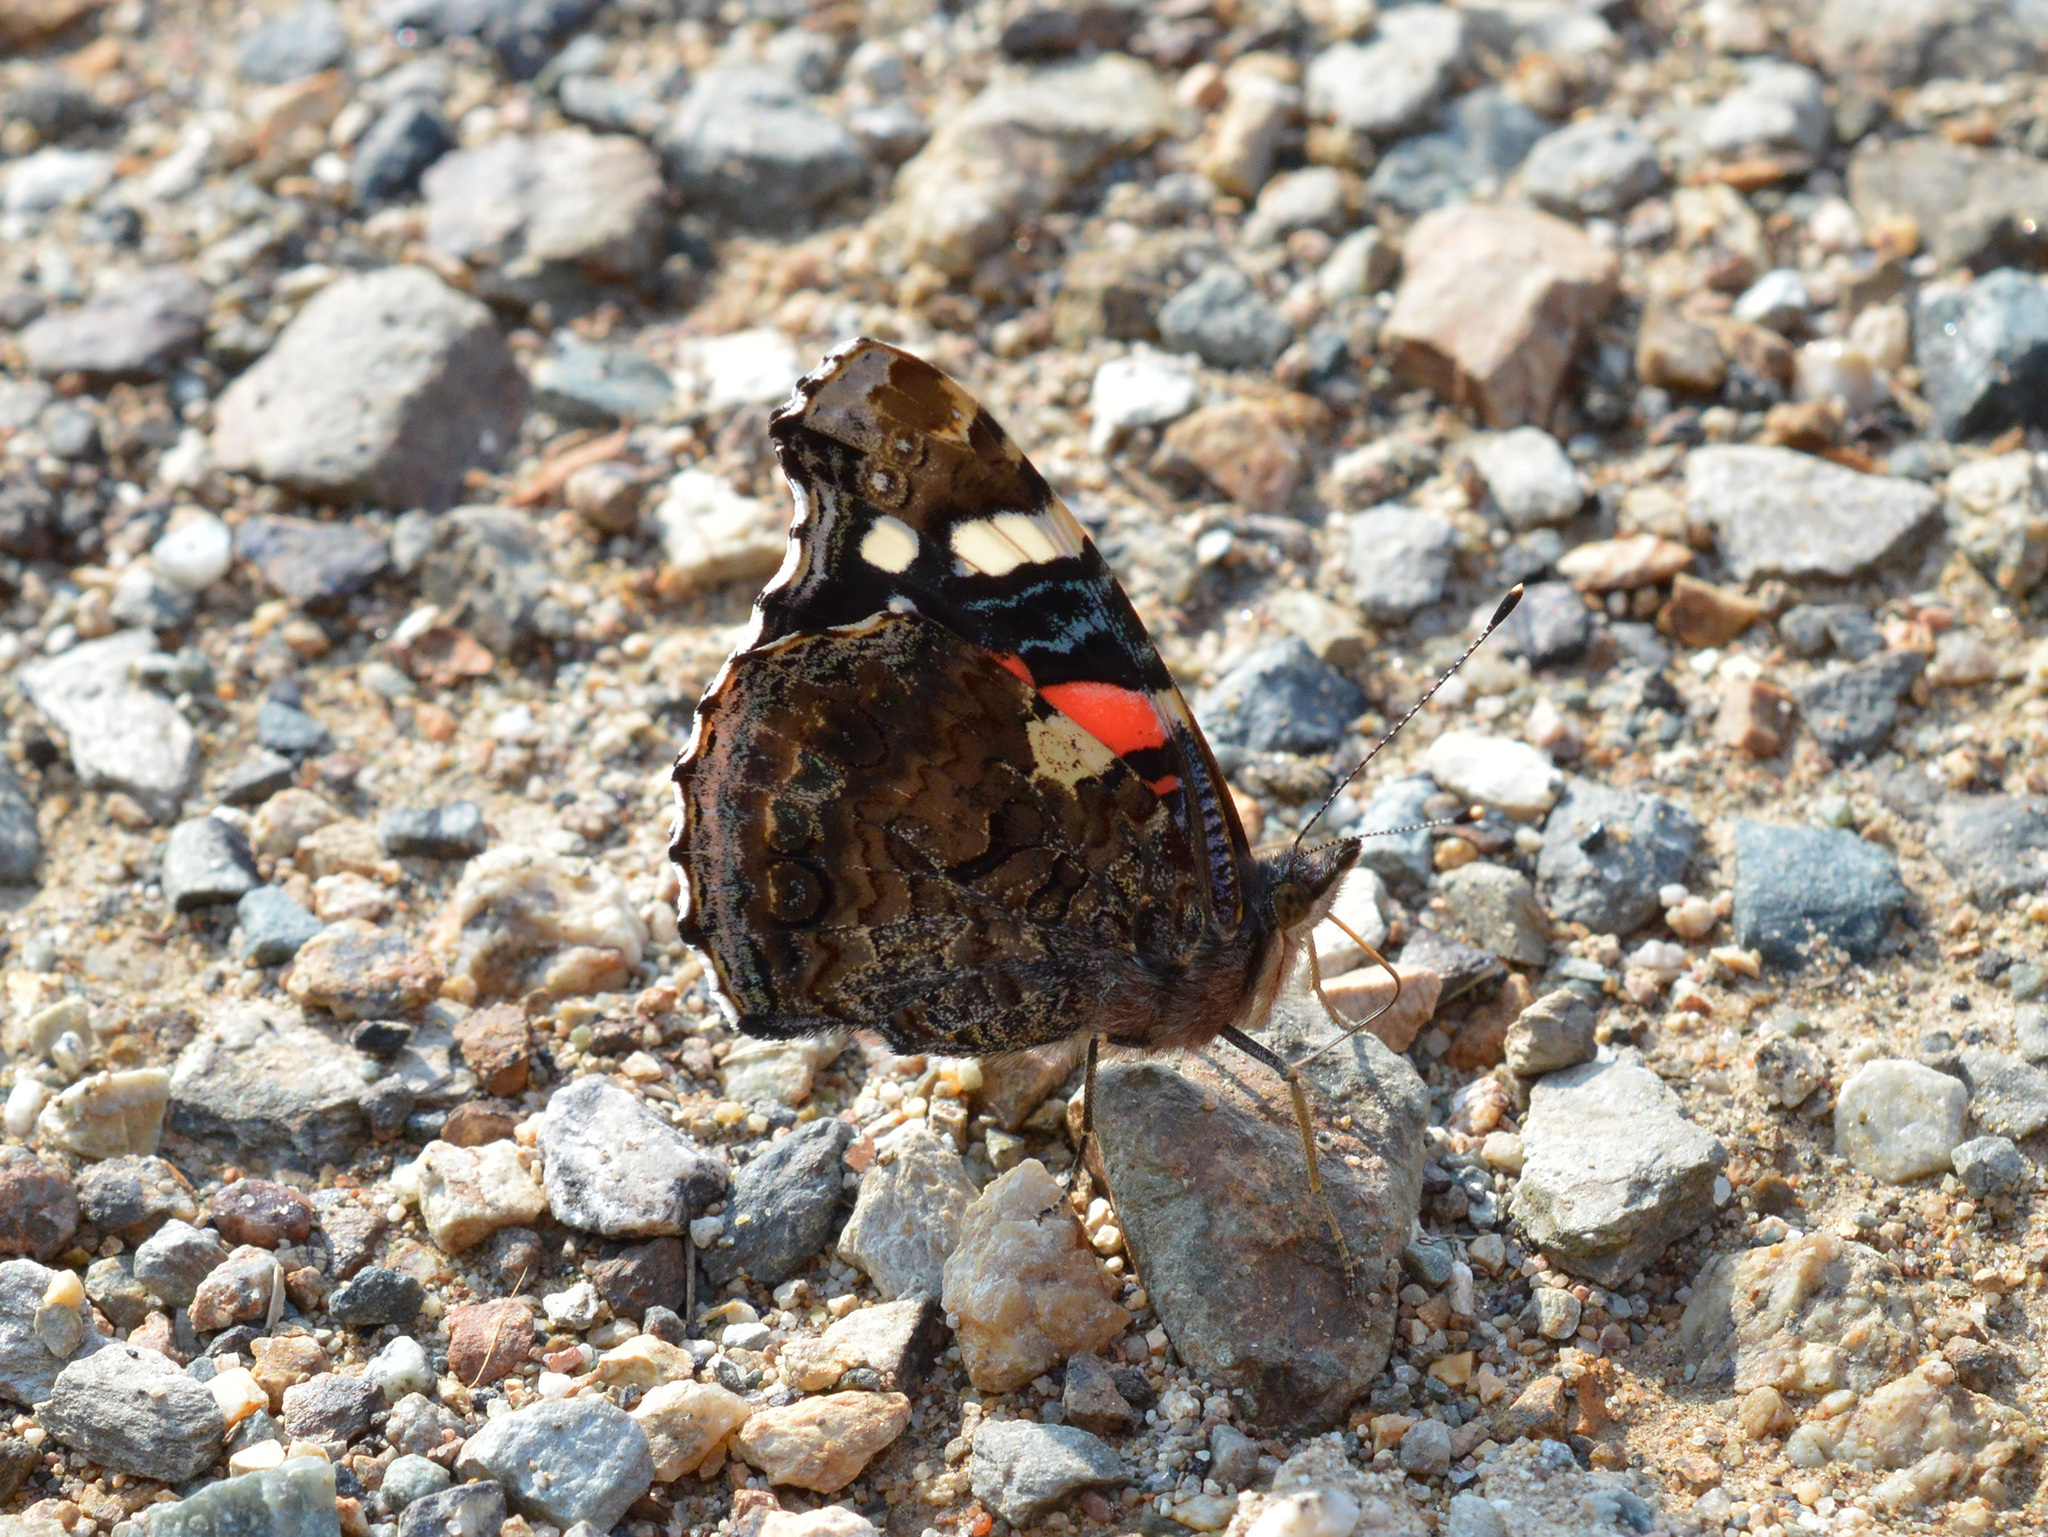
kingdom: Animalia
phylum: Arthropoda
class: Insecta
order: Lepidoptera
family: Nymphalidae
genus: Vanessa
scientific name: Vanessa atalanta
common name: Red admiral
